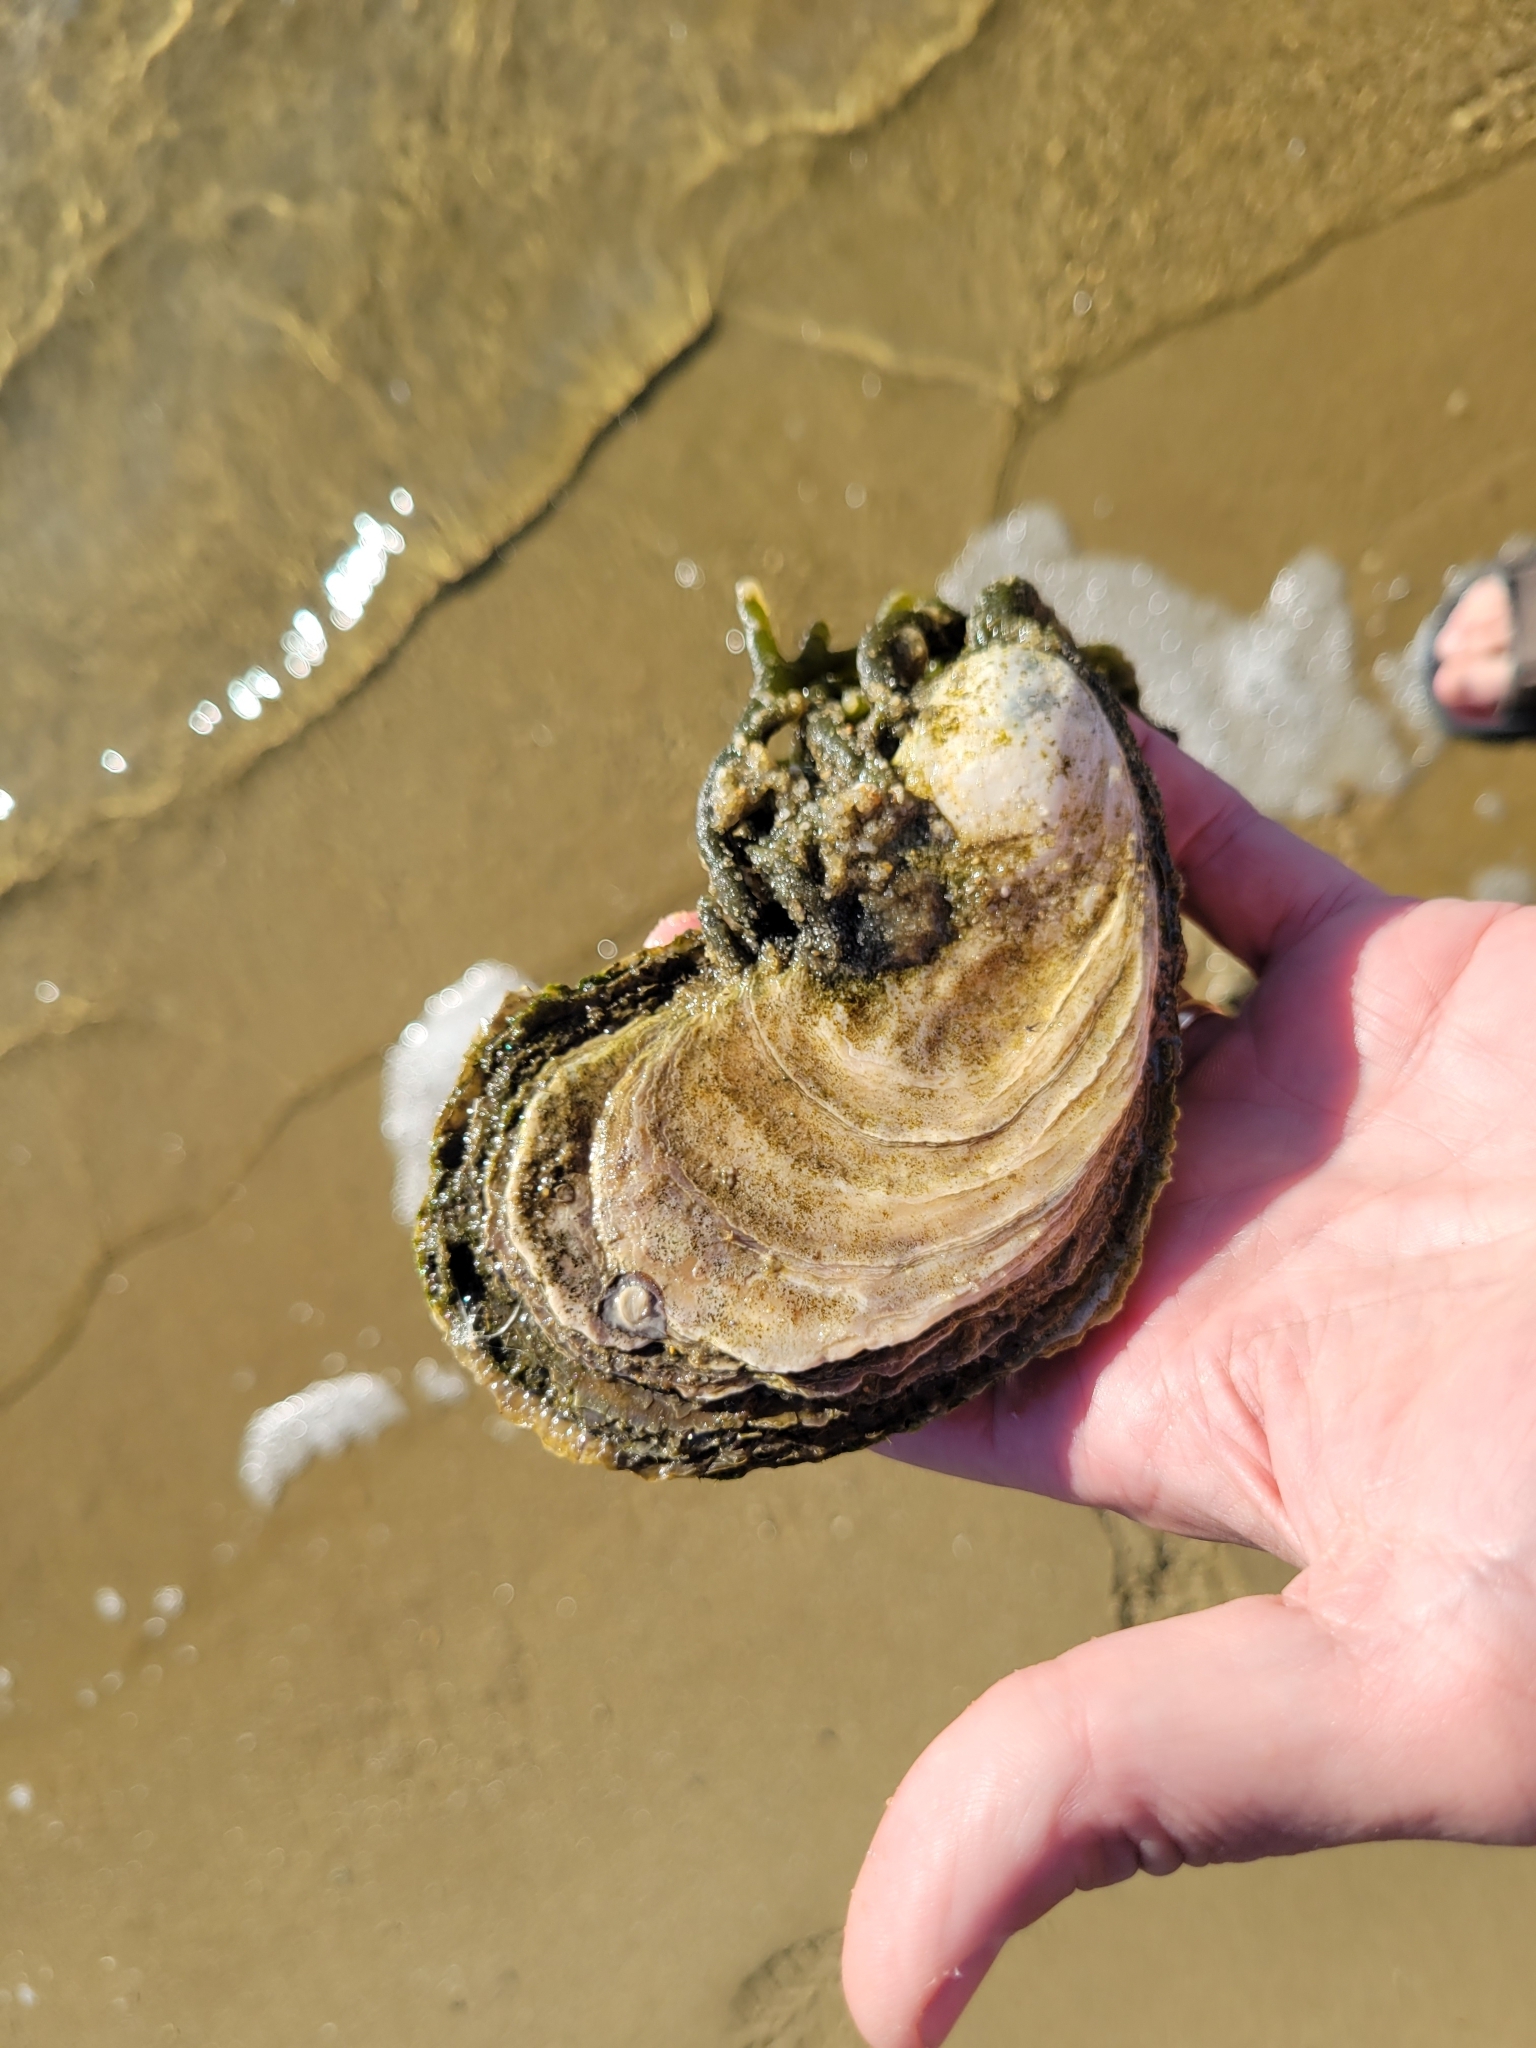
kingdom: Animalia
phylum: Mollusca
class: Bivalvia
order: Ostreida
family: Ostreidae
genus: Crassostrea
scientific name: Crassostrea virginica
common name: American oyster
